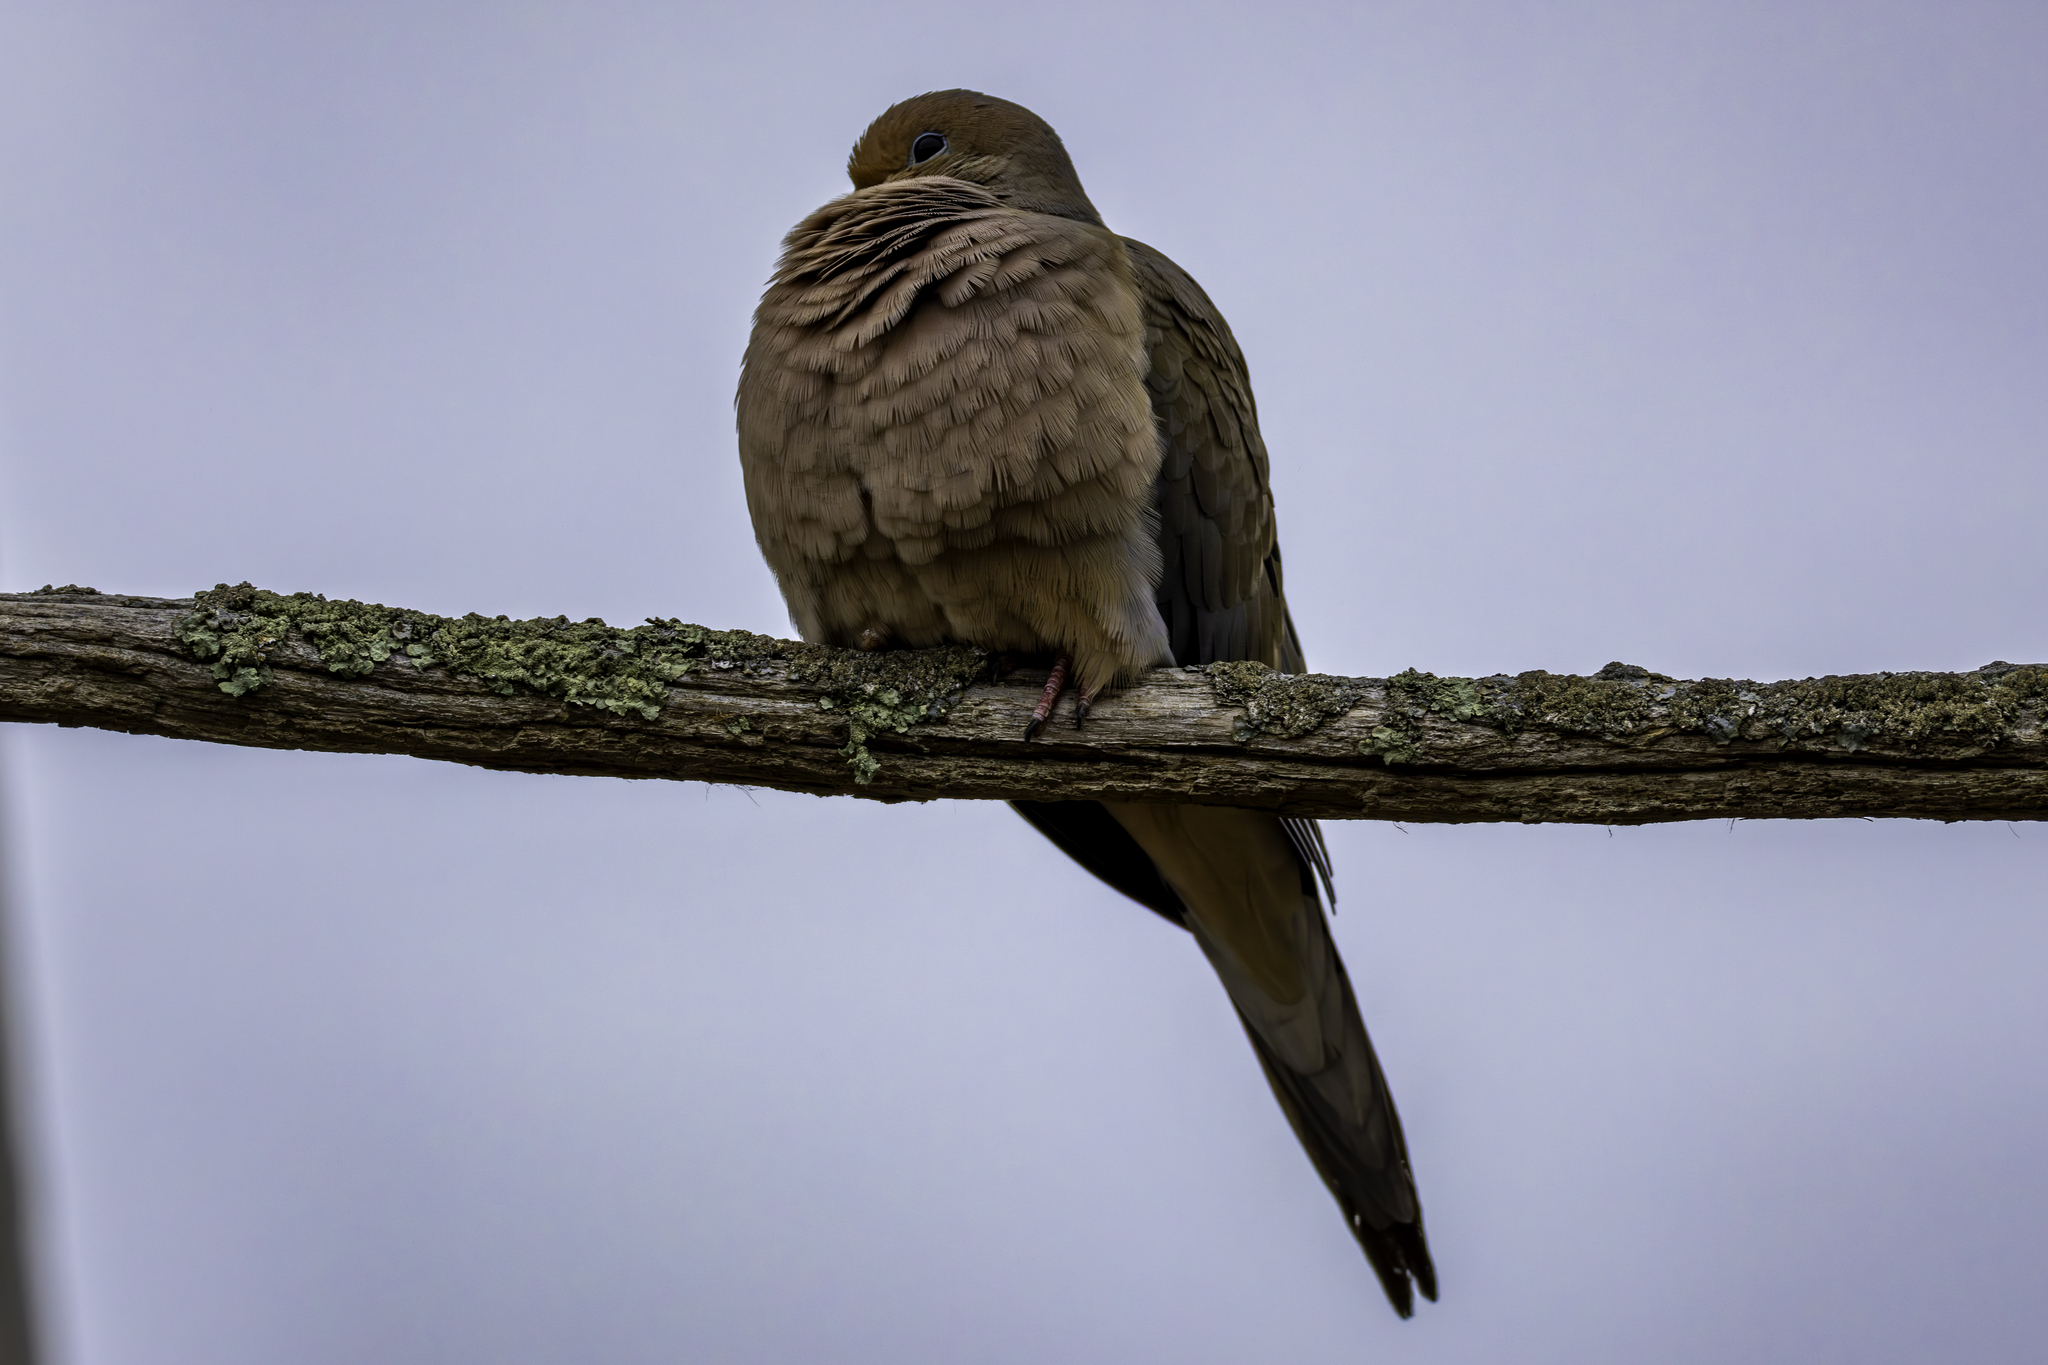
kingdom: Animalia
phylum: Chordata
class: Aves
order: Columbiformes
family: Columbidae
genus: Zenaida
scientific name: Zenaida macroura
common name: Mourning dove
